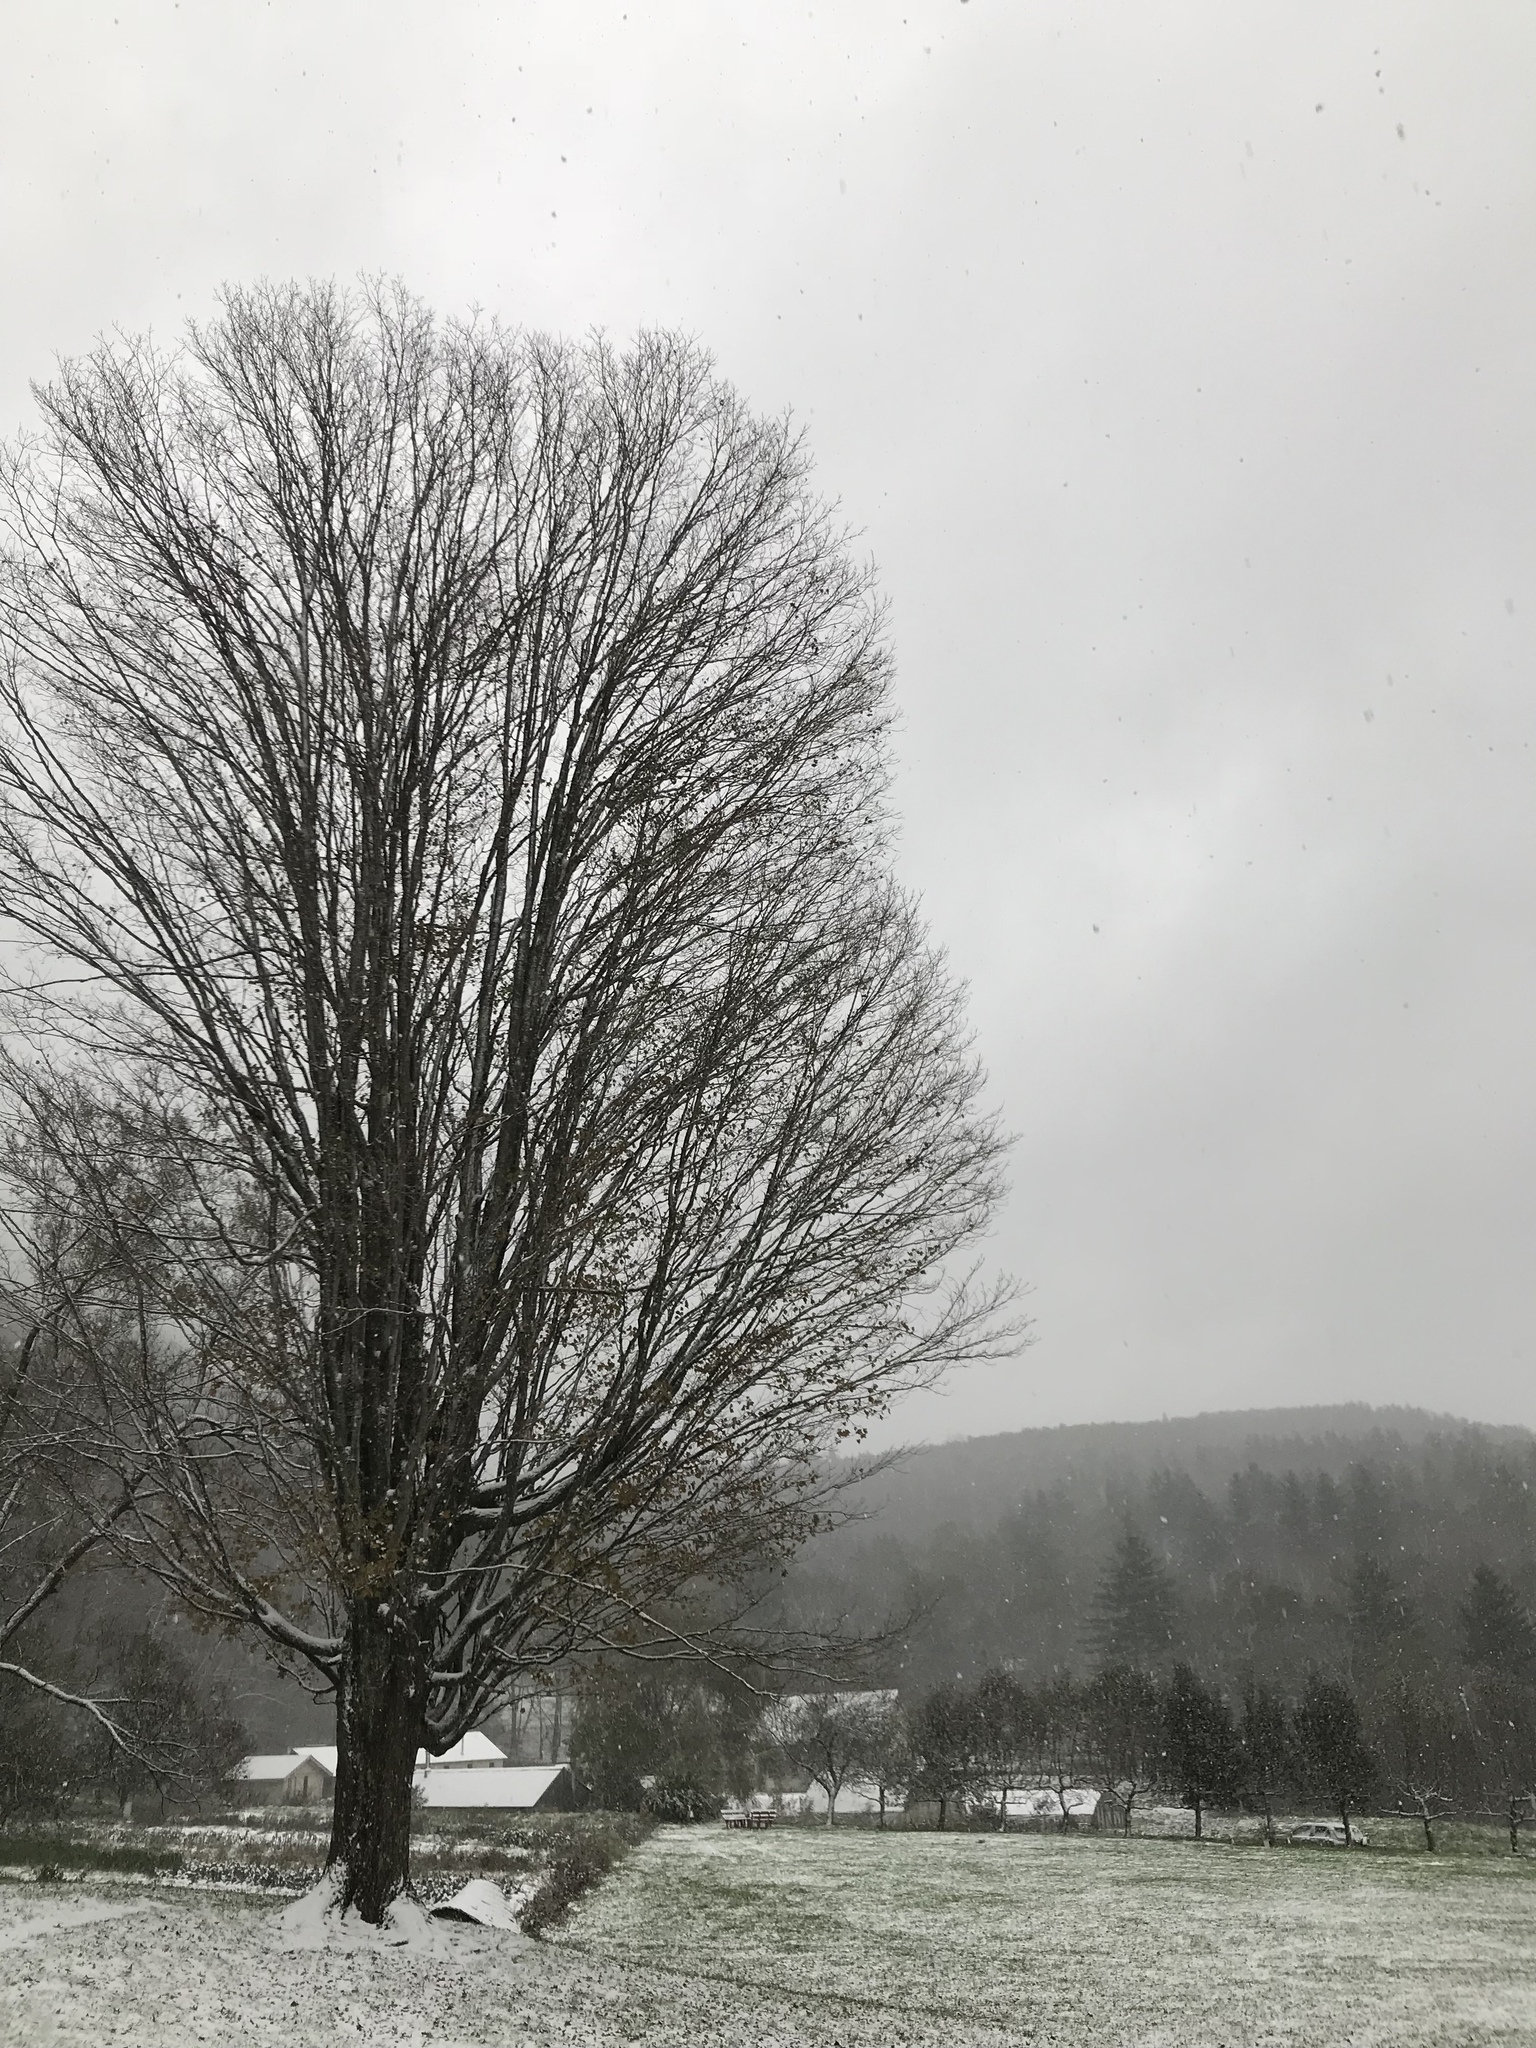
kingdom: Plantae
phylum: Tracheophyta
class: Magnoliopsida
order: Sapindales
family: Sapindaceae
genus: Acer
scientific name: Acer saccharum
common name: Sugar maple
